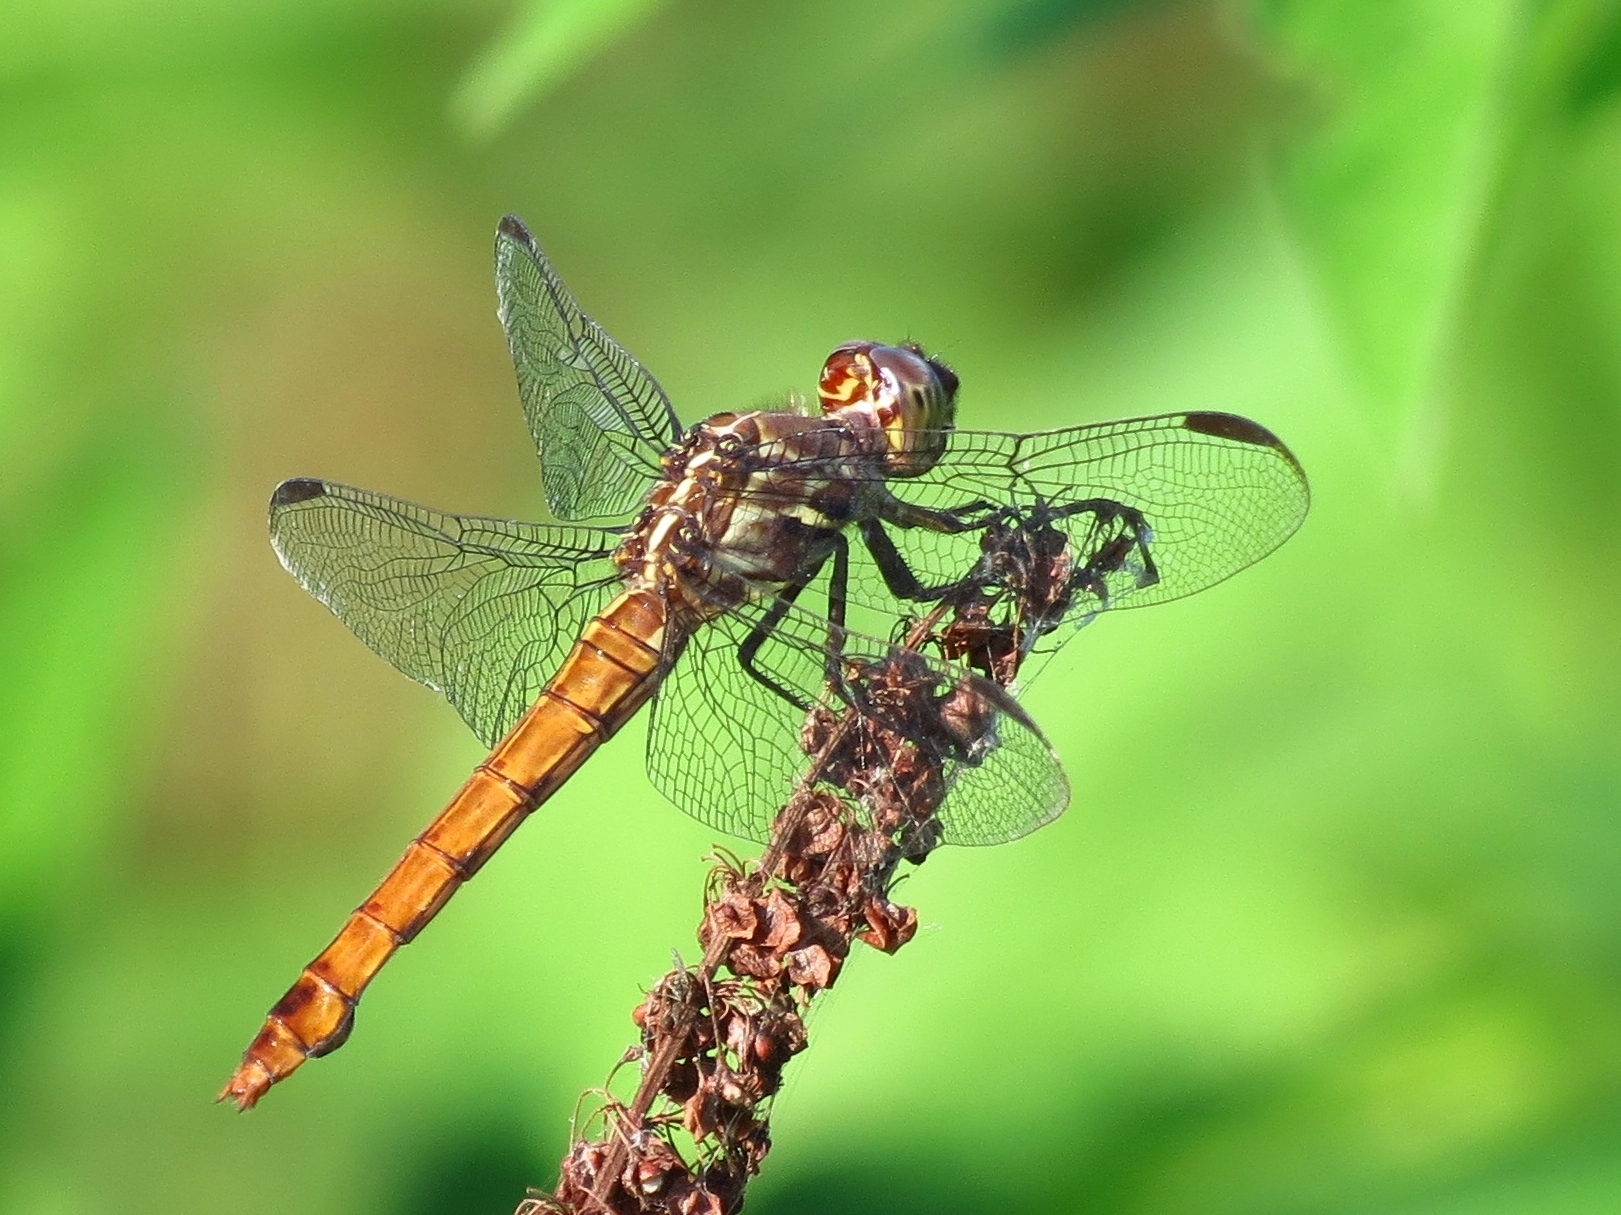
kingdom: Animalia
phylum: Arthropoda
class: Insecta
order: Odonata
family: Libellulidae
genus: Orthemis
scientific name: Orthemis ferruginea
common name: Roseate skimmer
